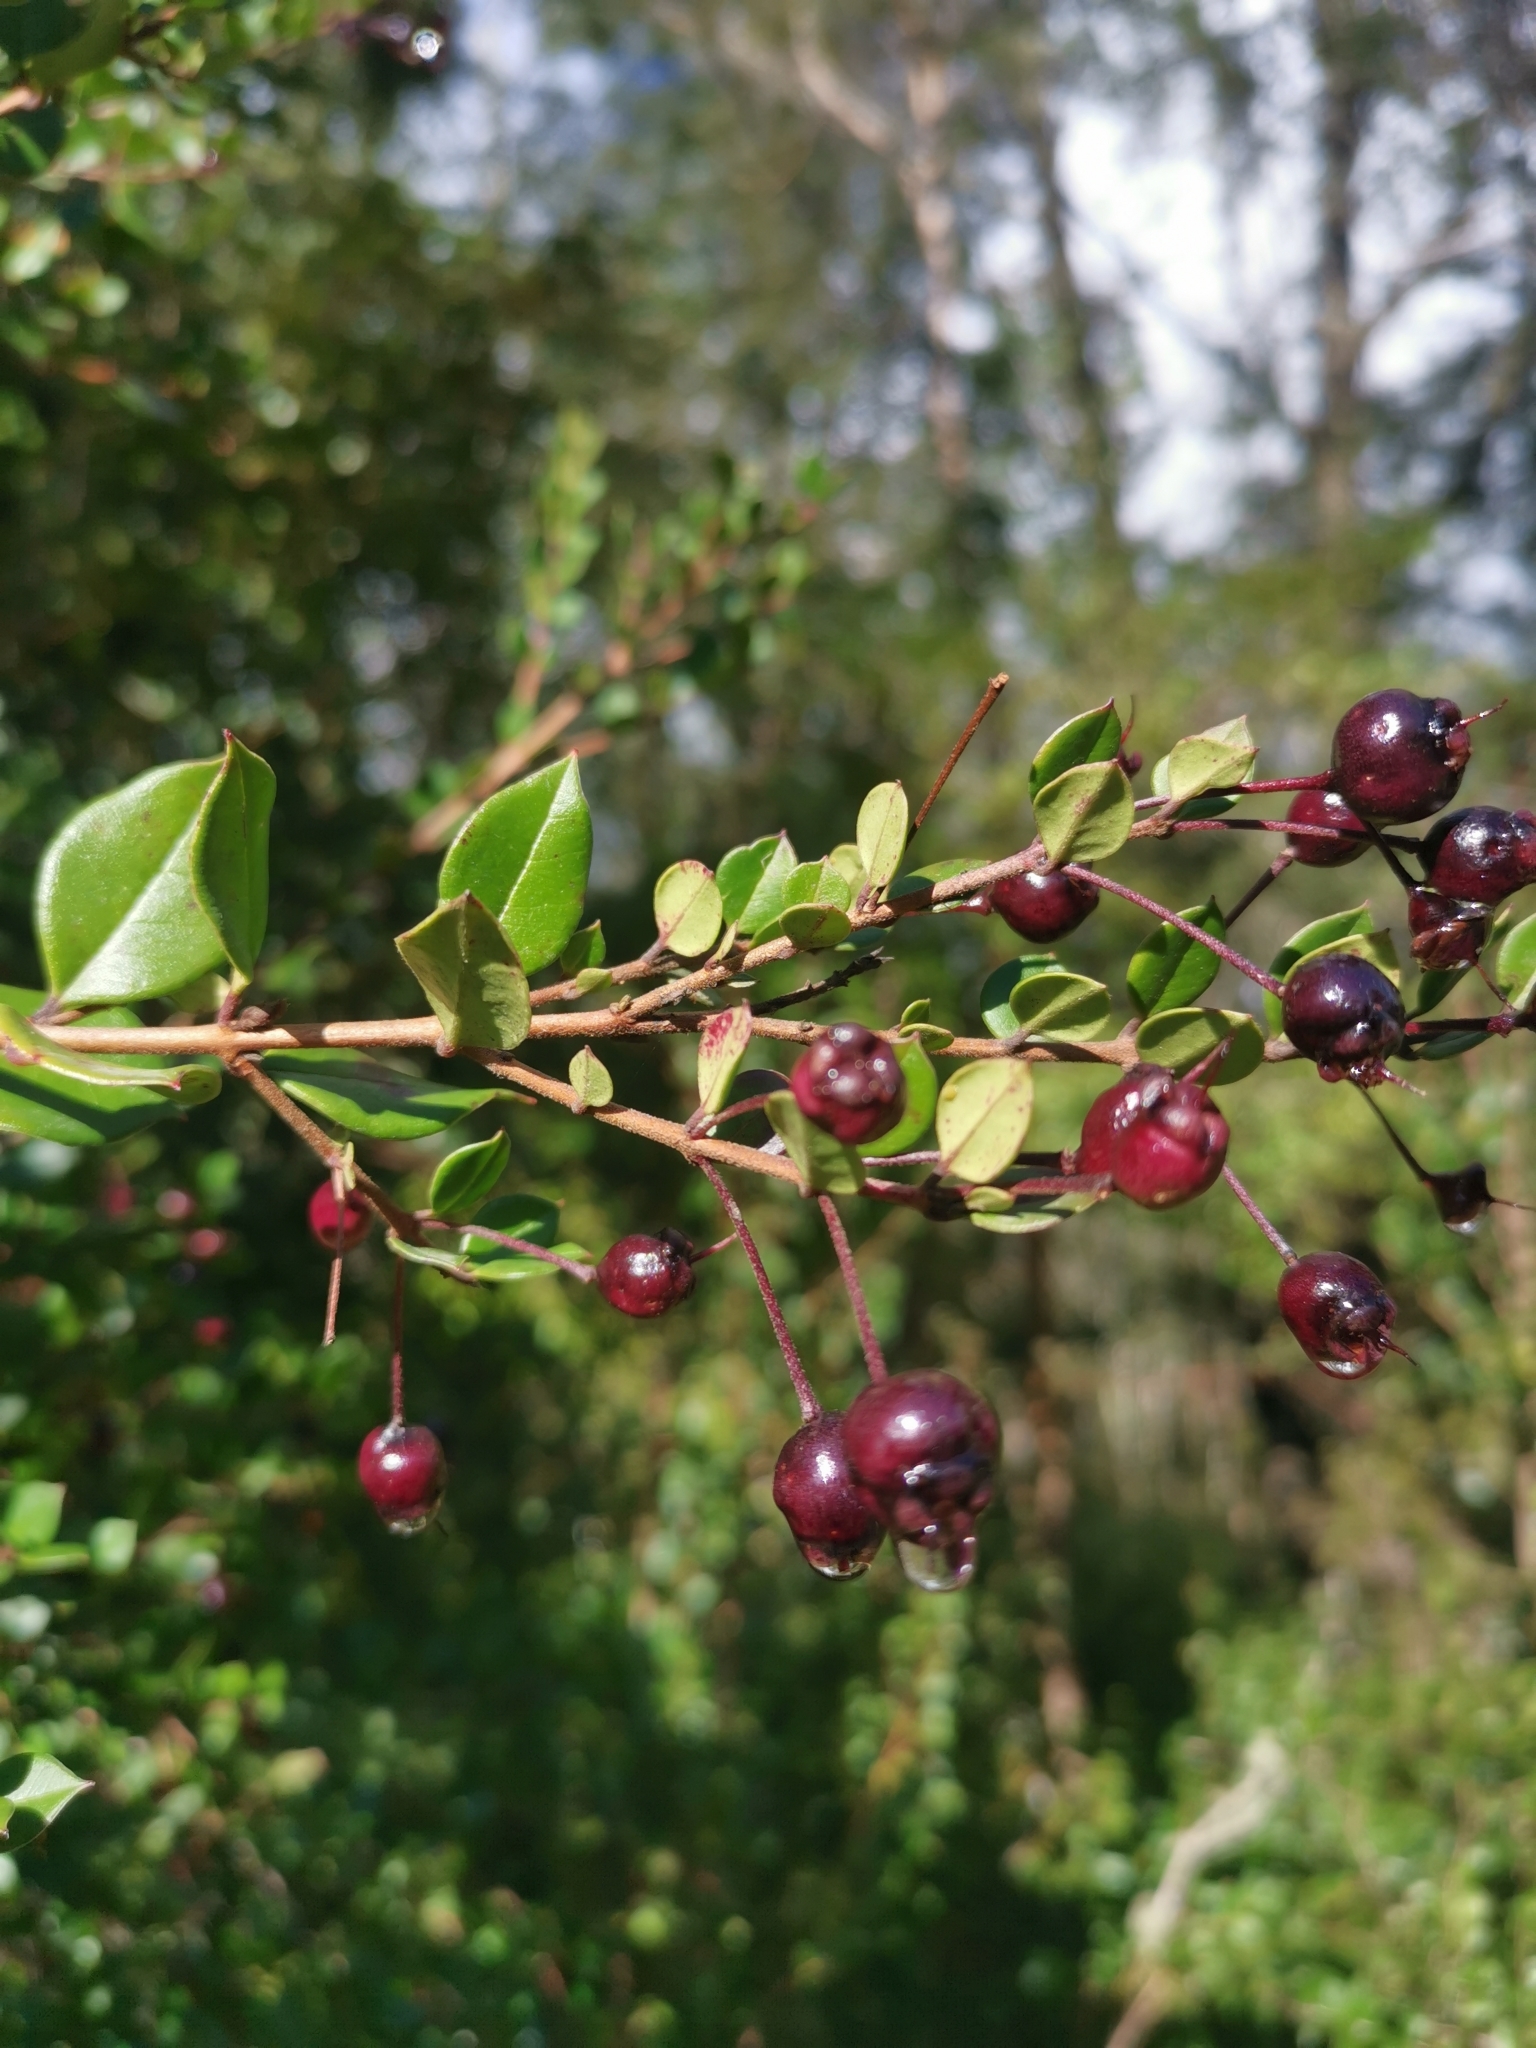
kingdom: Plantae
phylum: Tracheophyta
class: Magnoliopsida
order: Myrtales
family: Myrtaceae
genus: Luma
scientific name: Luma apiculata
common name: Chilean myrtle
